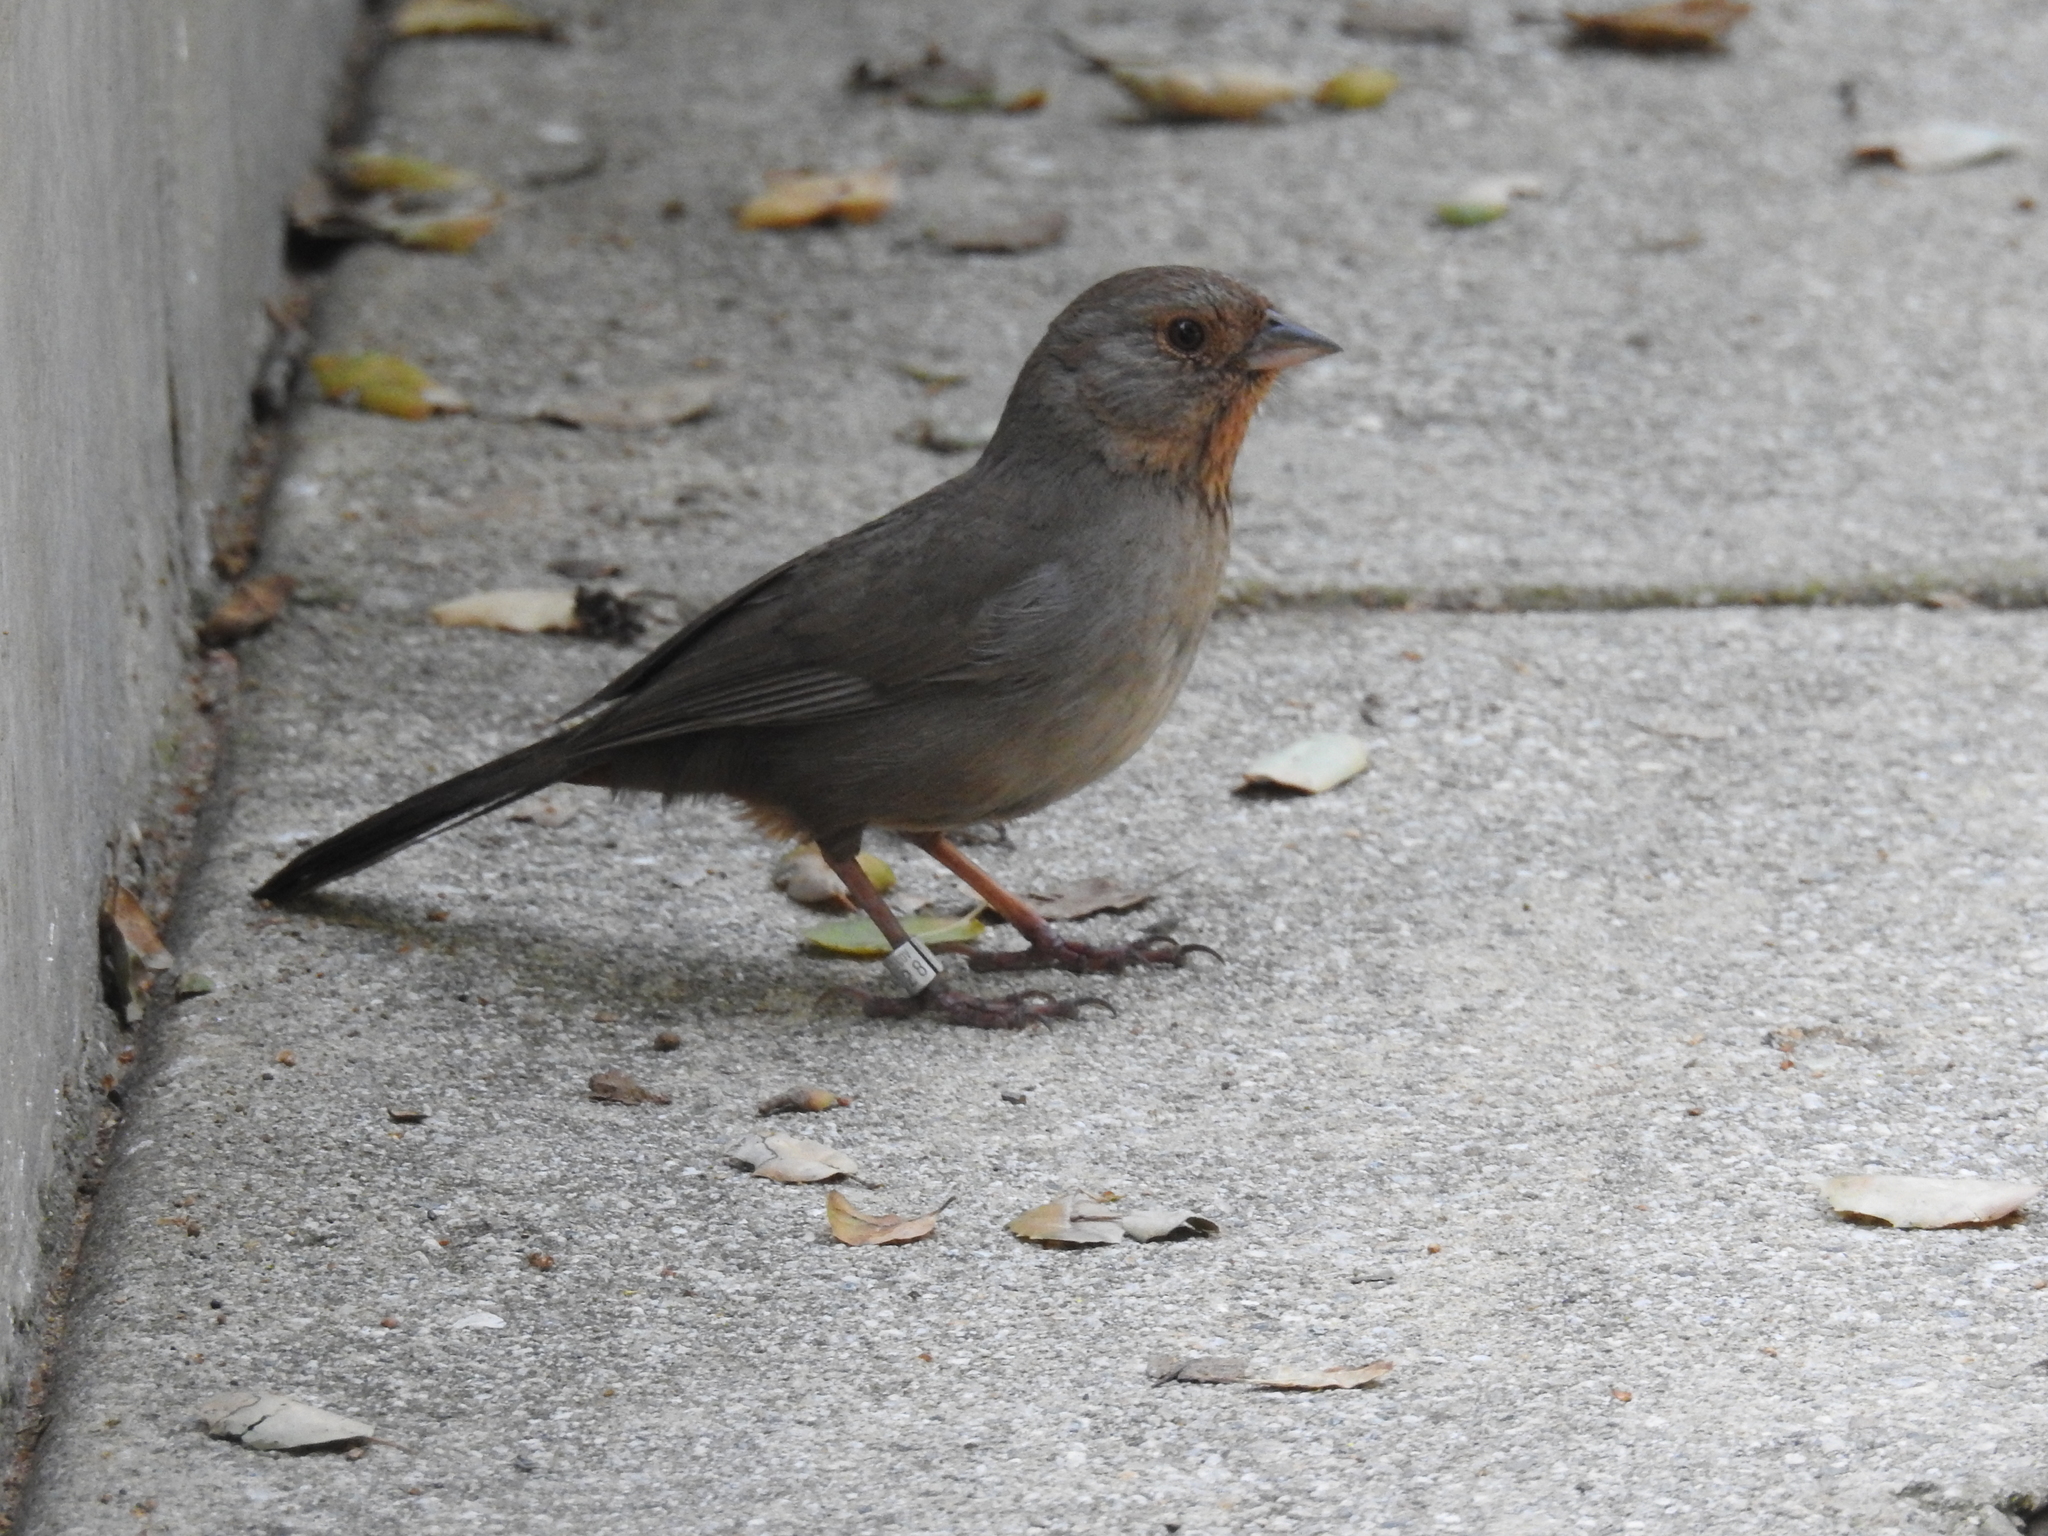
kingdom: Animalia
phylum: Chordata
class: Aves
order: Passeriformes
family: Passerellidae
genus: Melozone
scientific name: Melozone crissalis
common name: California towhee
